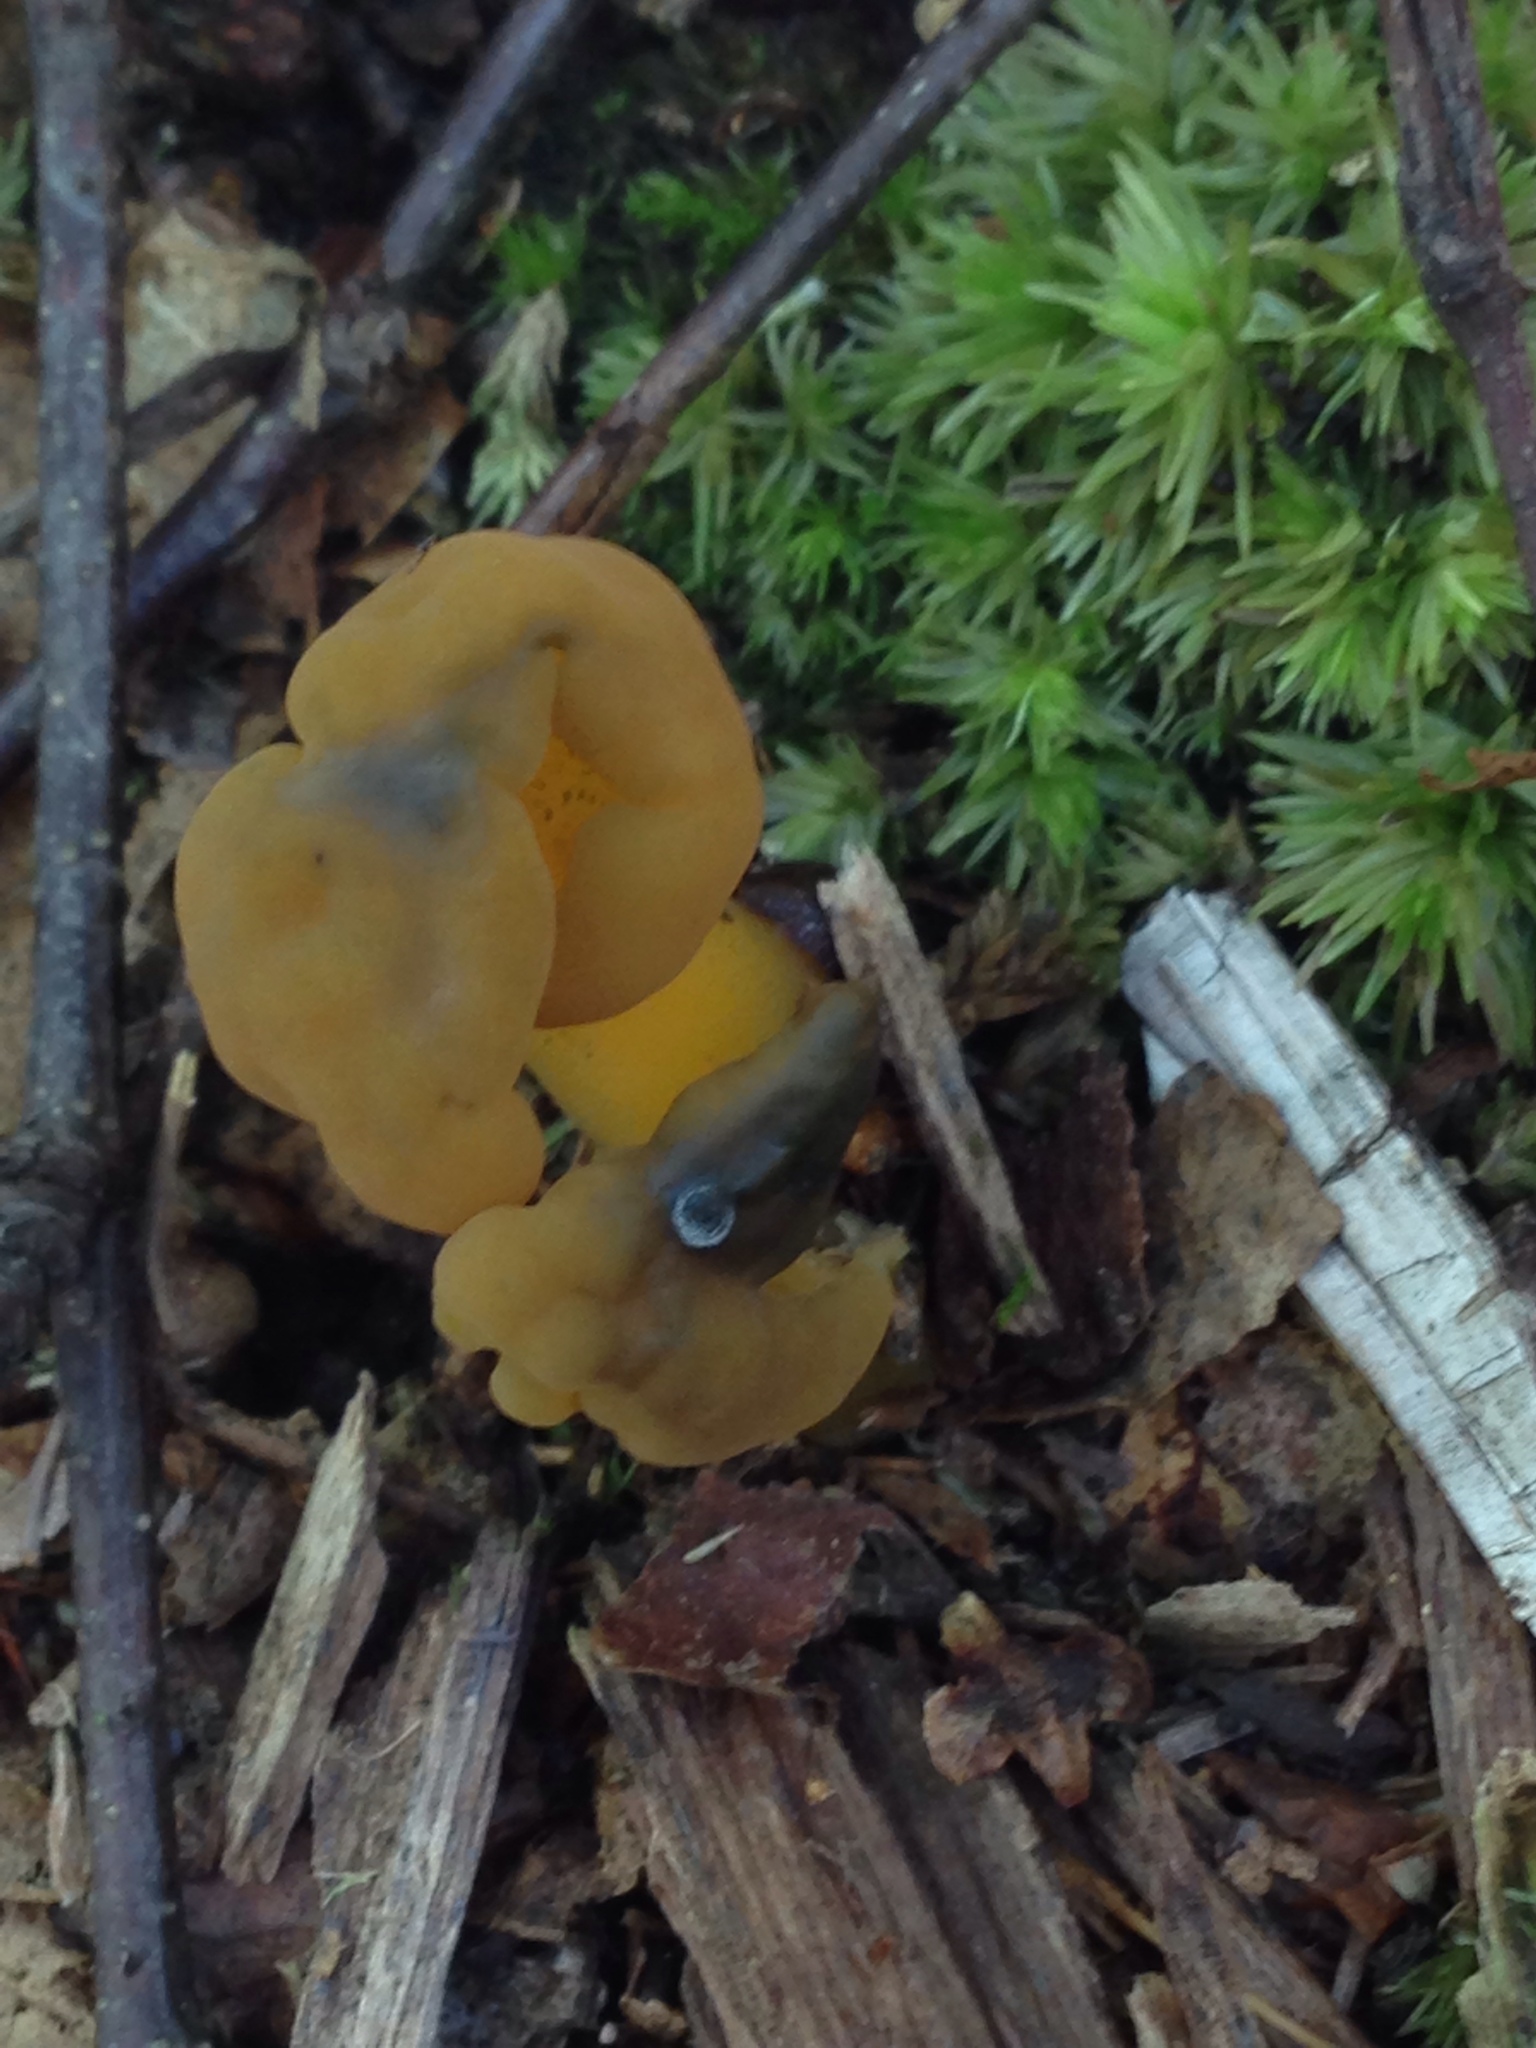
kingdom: Fungi
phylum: Ascomycota
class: Leotiomycetes
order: Leotiales
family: Leotiaceae
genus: Leotia
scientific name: Leotia lubrica
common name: Jellybaby
